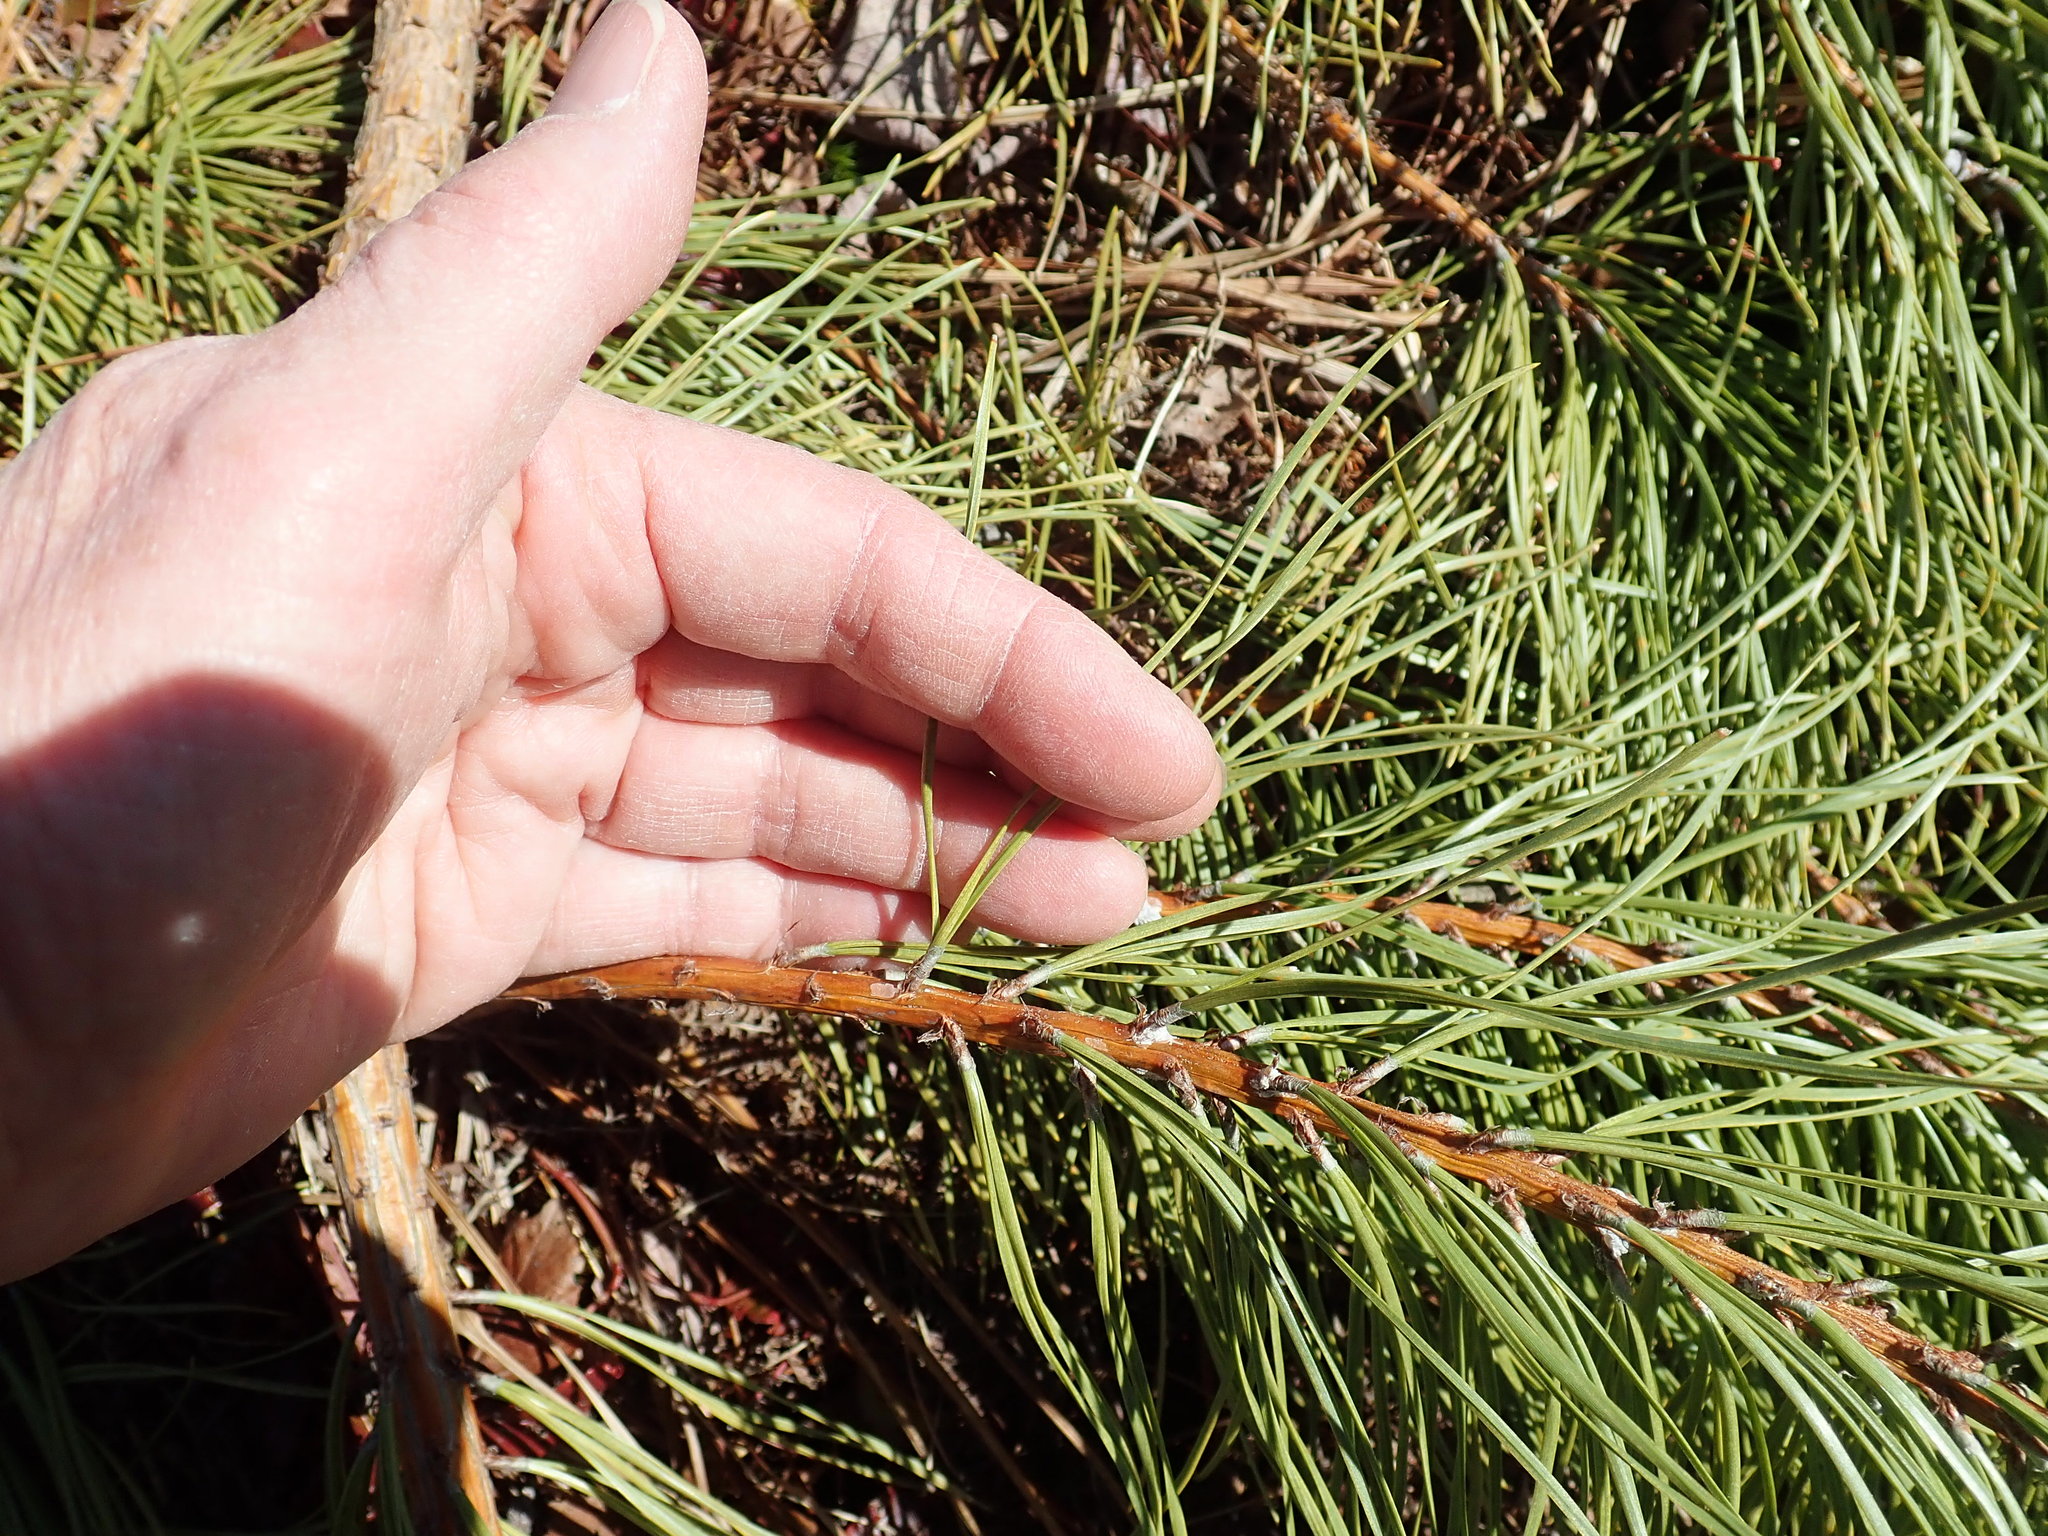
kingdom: Plantae
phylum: Tracheophyta
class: Pinopsida
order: Pinales
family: Pinaceae
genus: Pinus
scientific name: Pinus rigida
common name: Pitch pine
